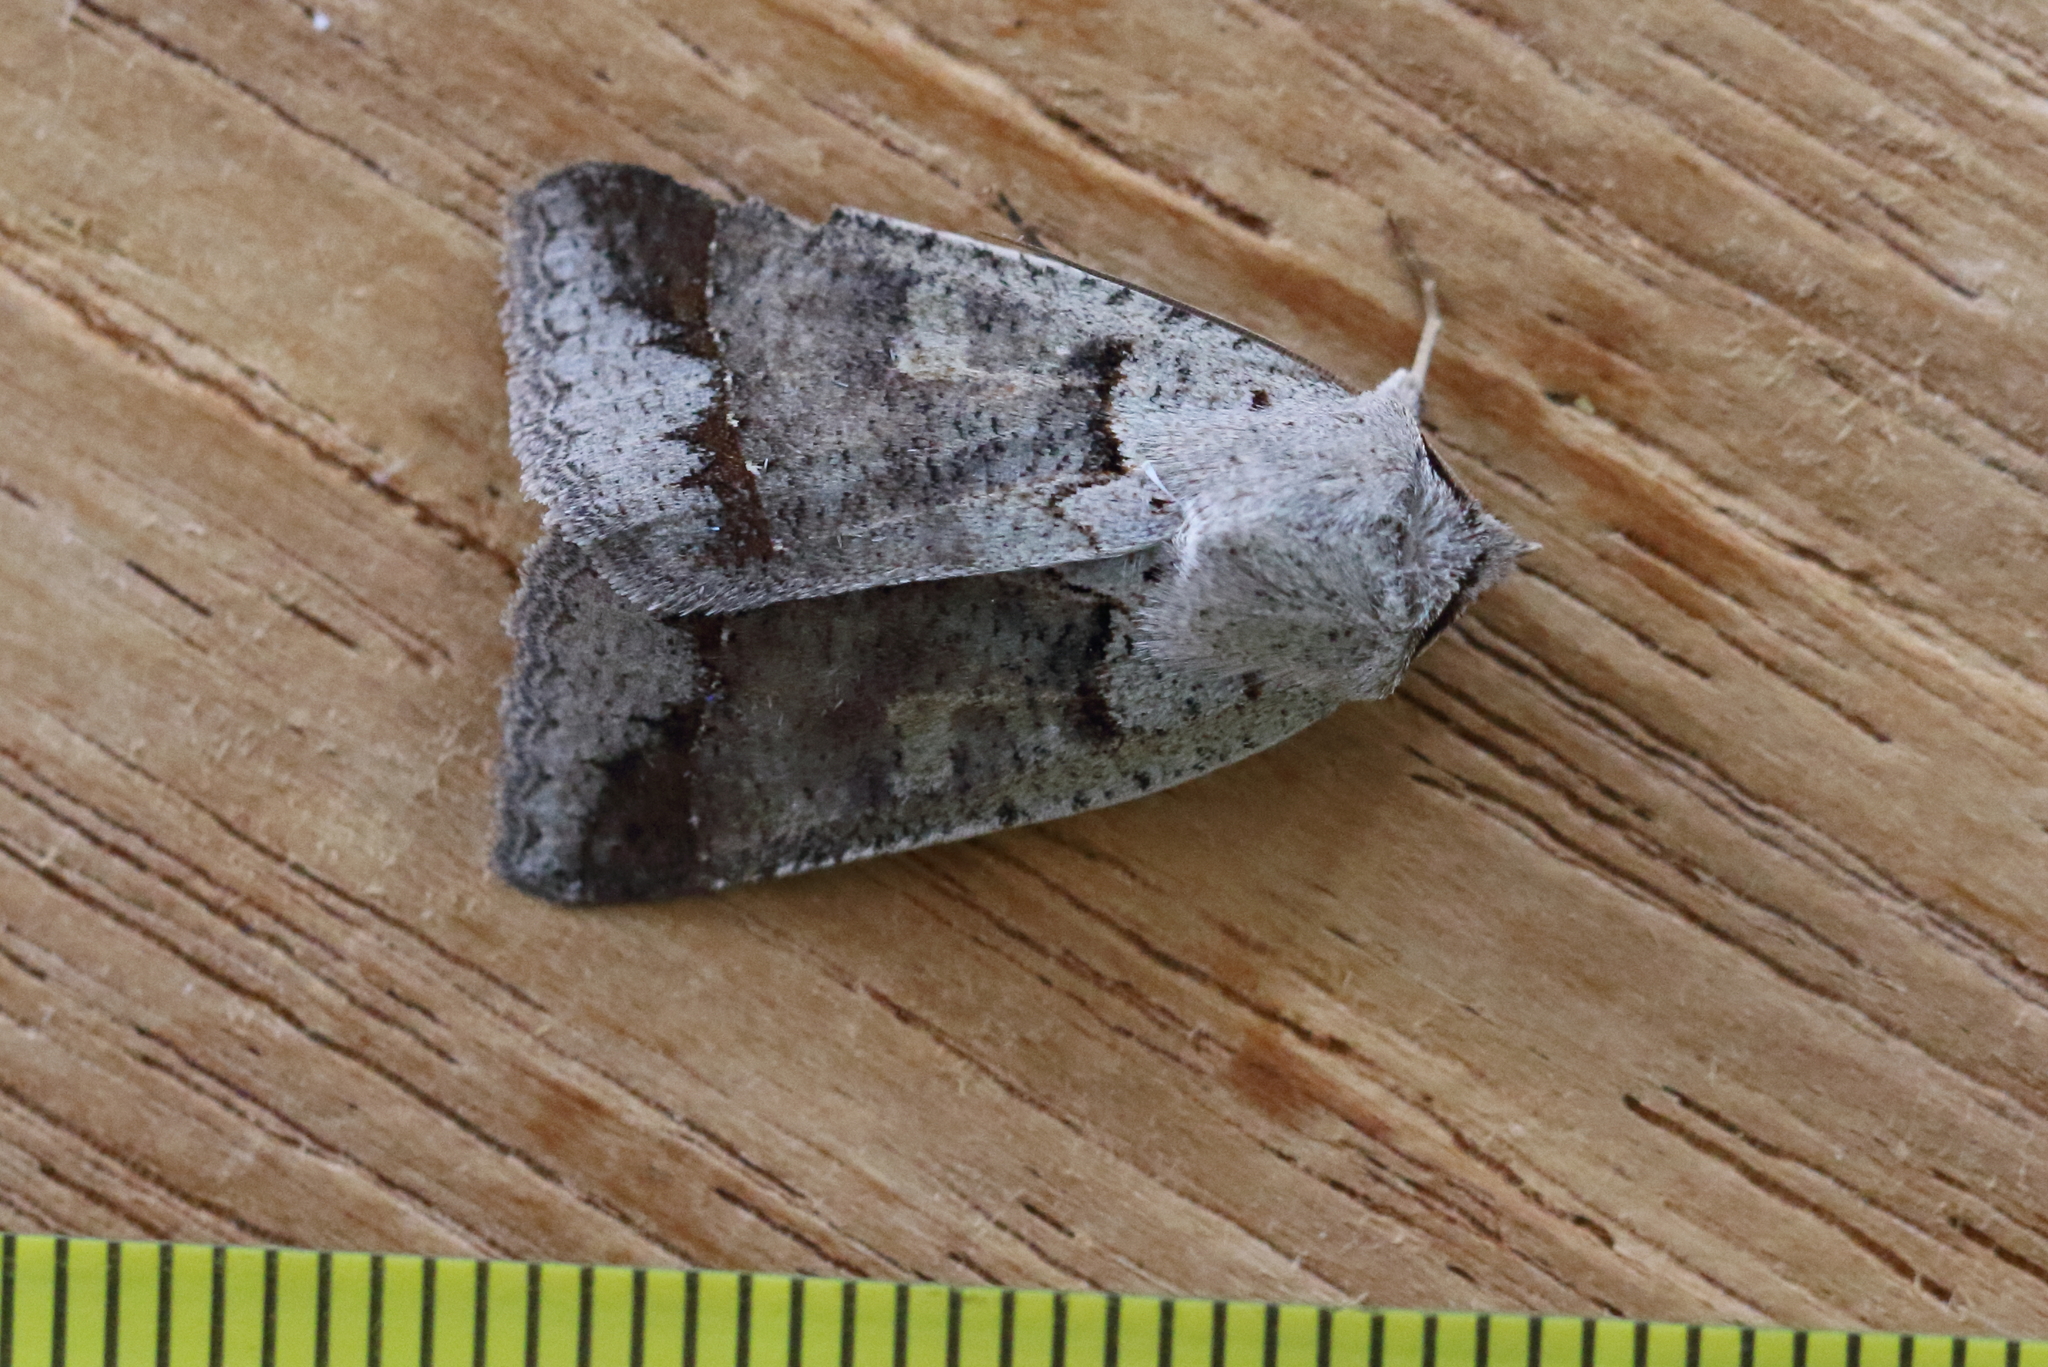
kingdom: Animalia
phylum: Arthropoda
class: Insecta
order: Lepidoptera
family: Erebidae
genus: Pantydia
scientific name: Pantydia sparsa
